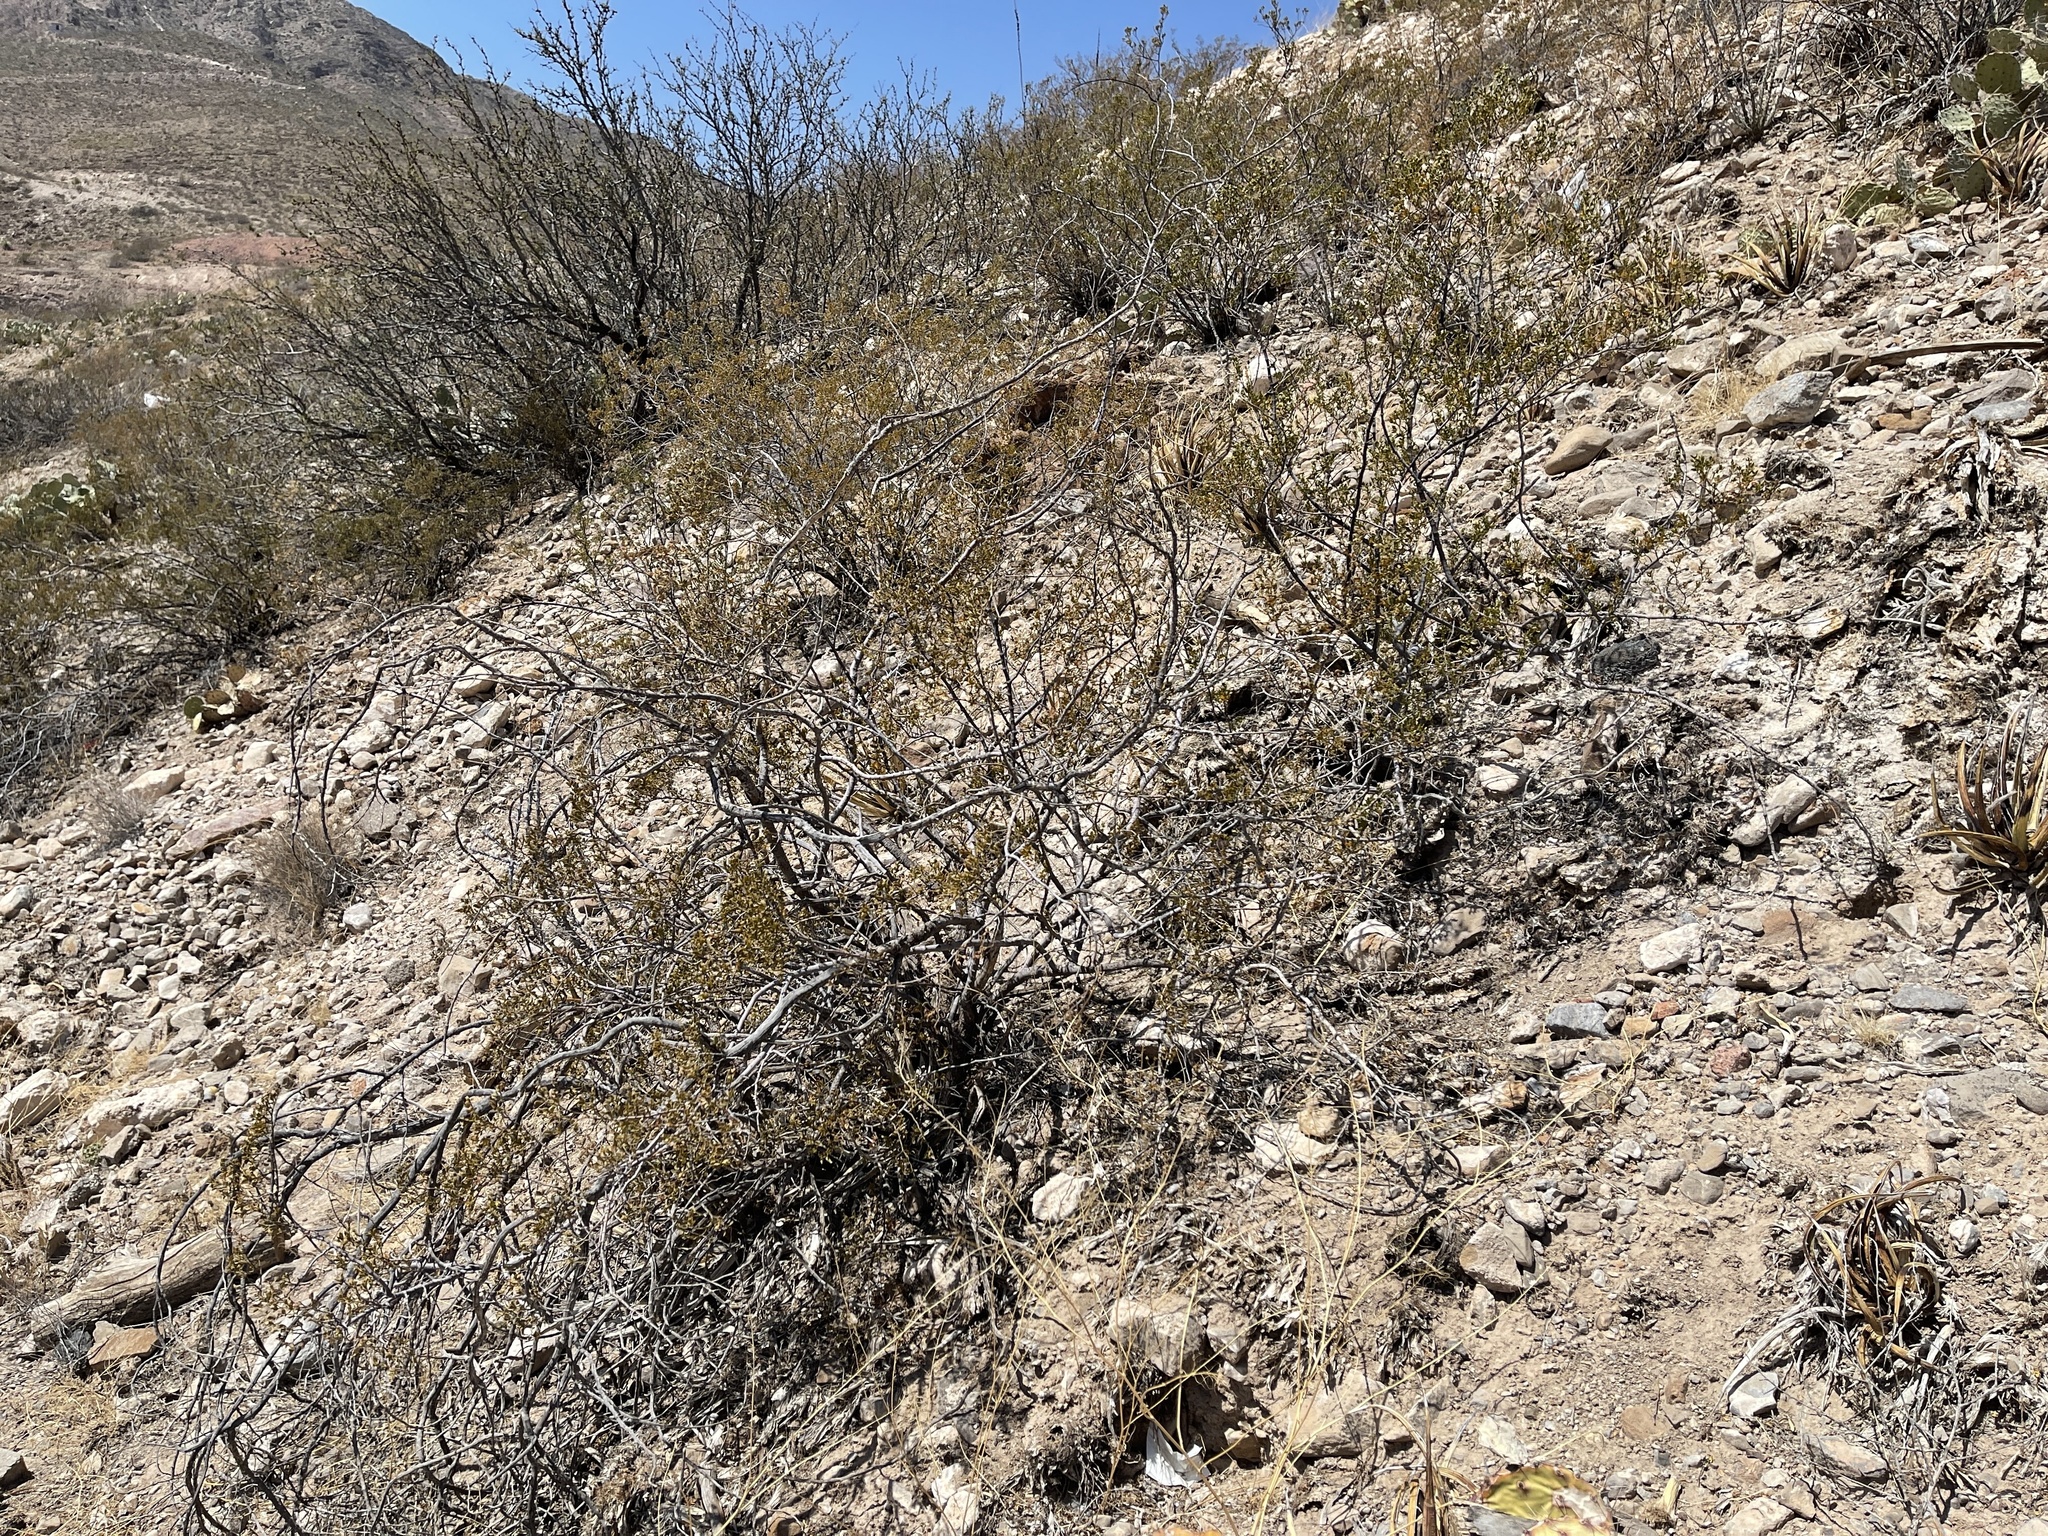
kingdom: Plantae
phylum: Tracheophyta
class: Magnoliopsida
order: Zygophyllales
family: Zygophyllaceae
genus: Larrea
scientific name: Larrea tridentata
